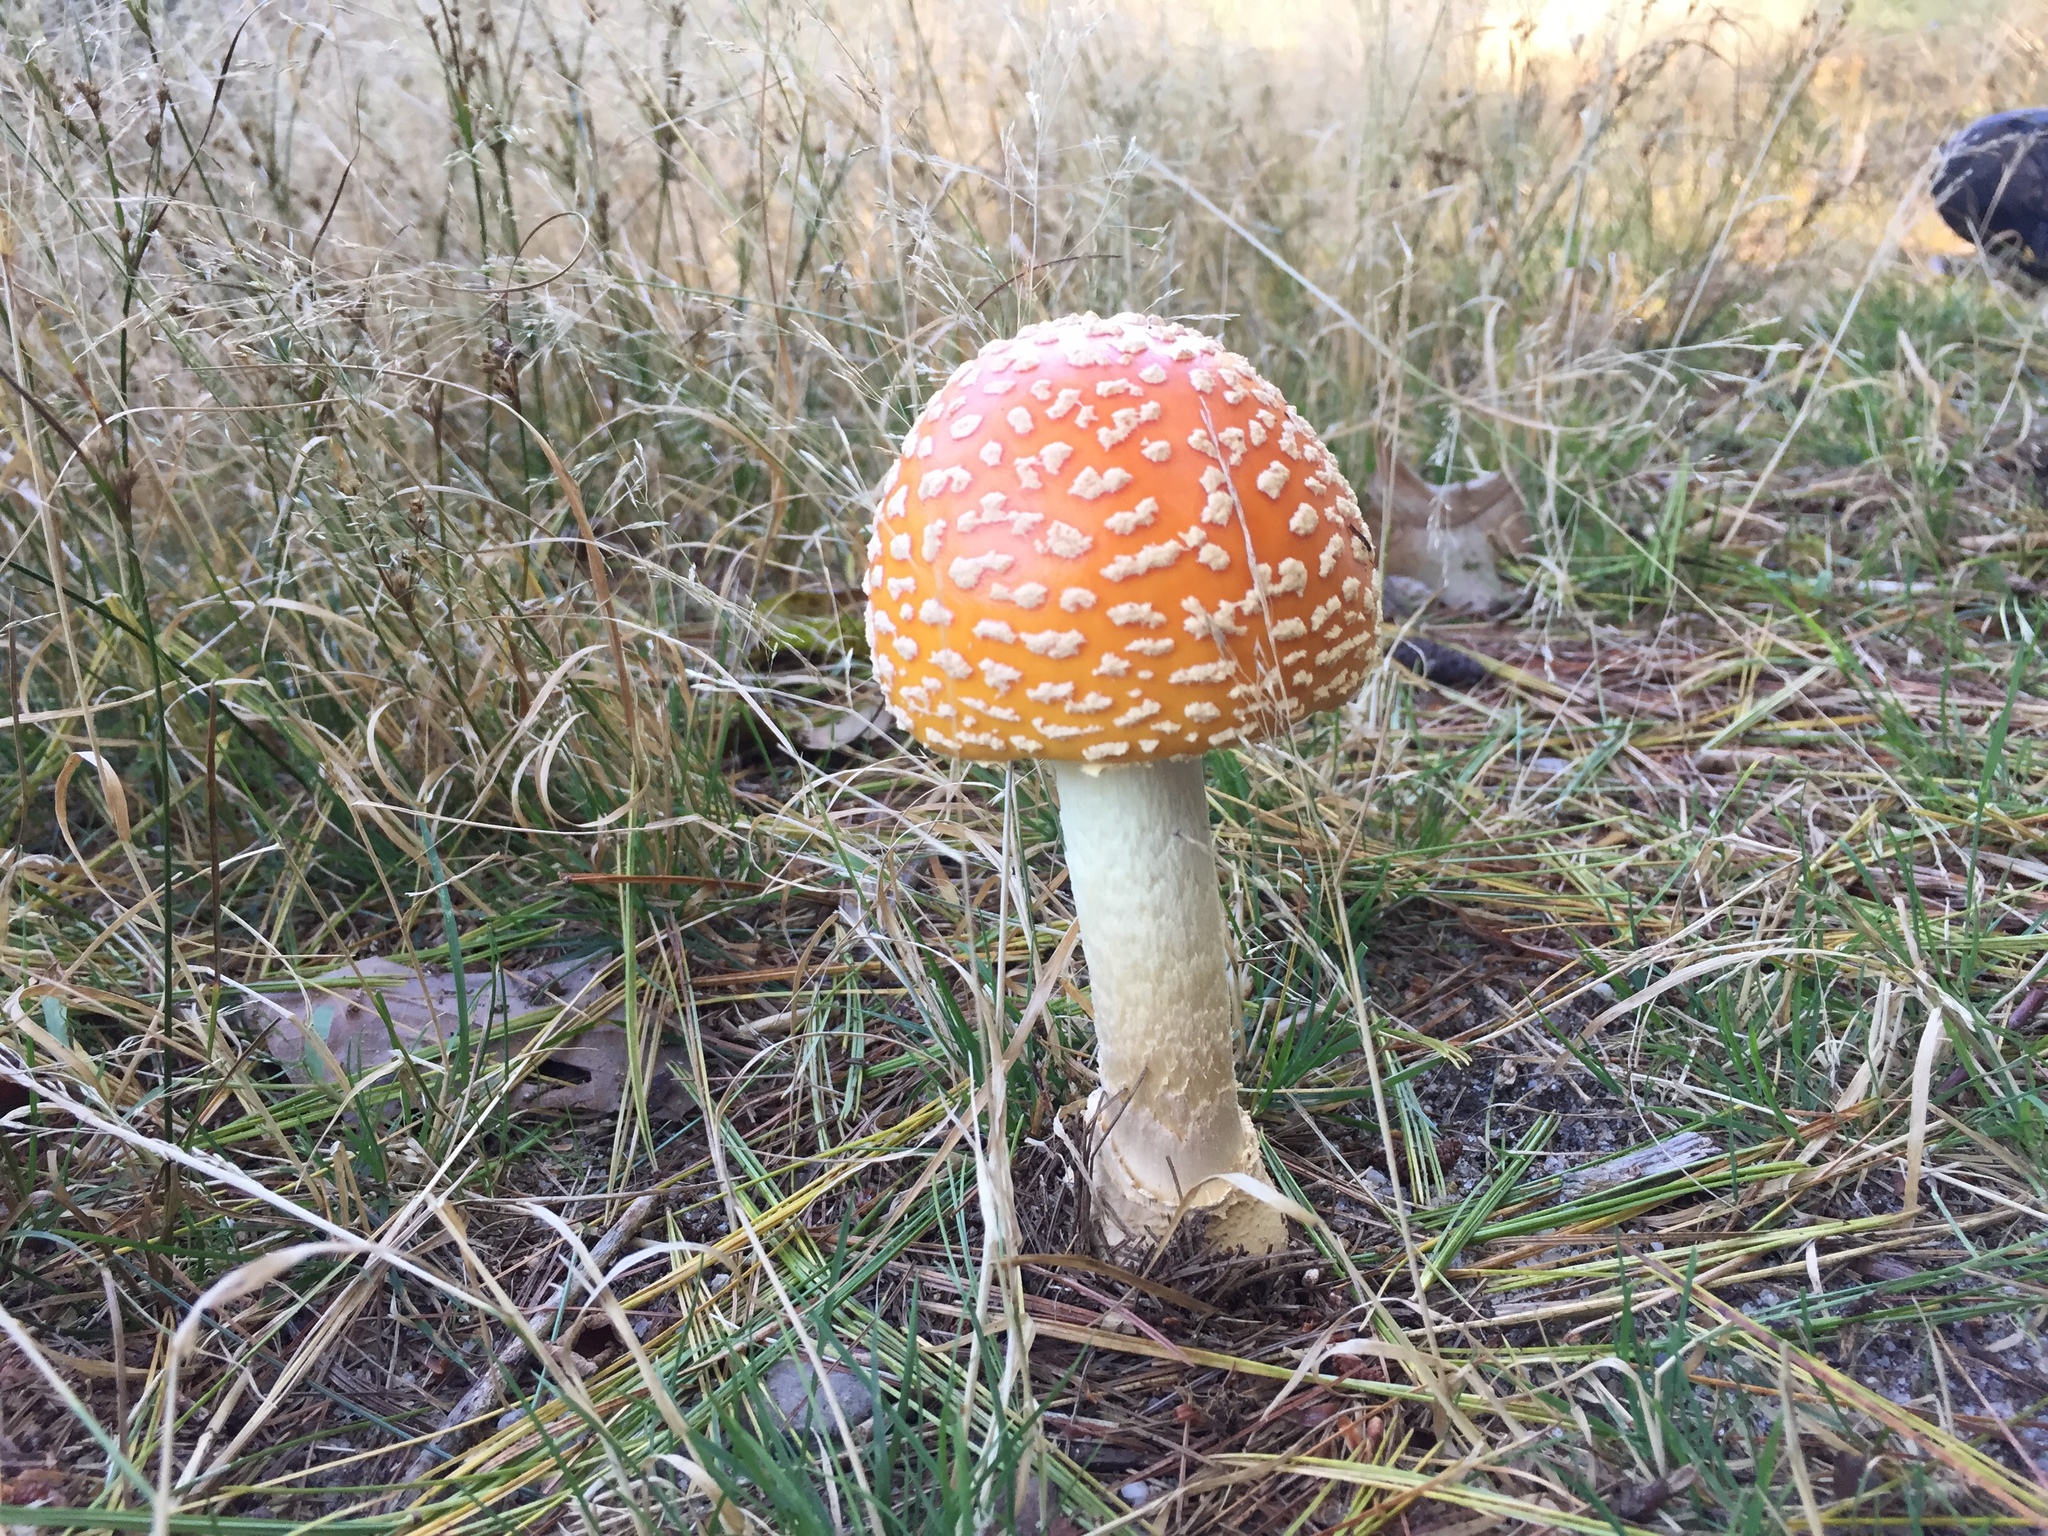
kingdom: Fungi
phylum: Basidiomycota
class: Agaricomycetes
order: Agaricales
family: Amanitaceae
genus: Amanita
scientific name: Amanita muscaria
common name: Fly agaric
